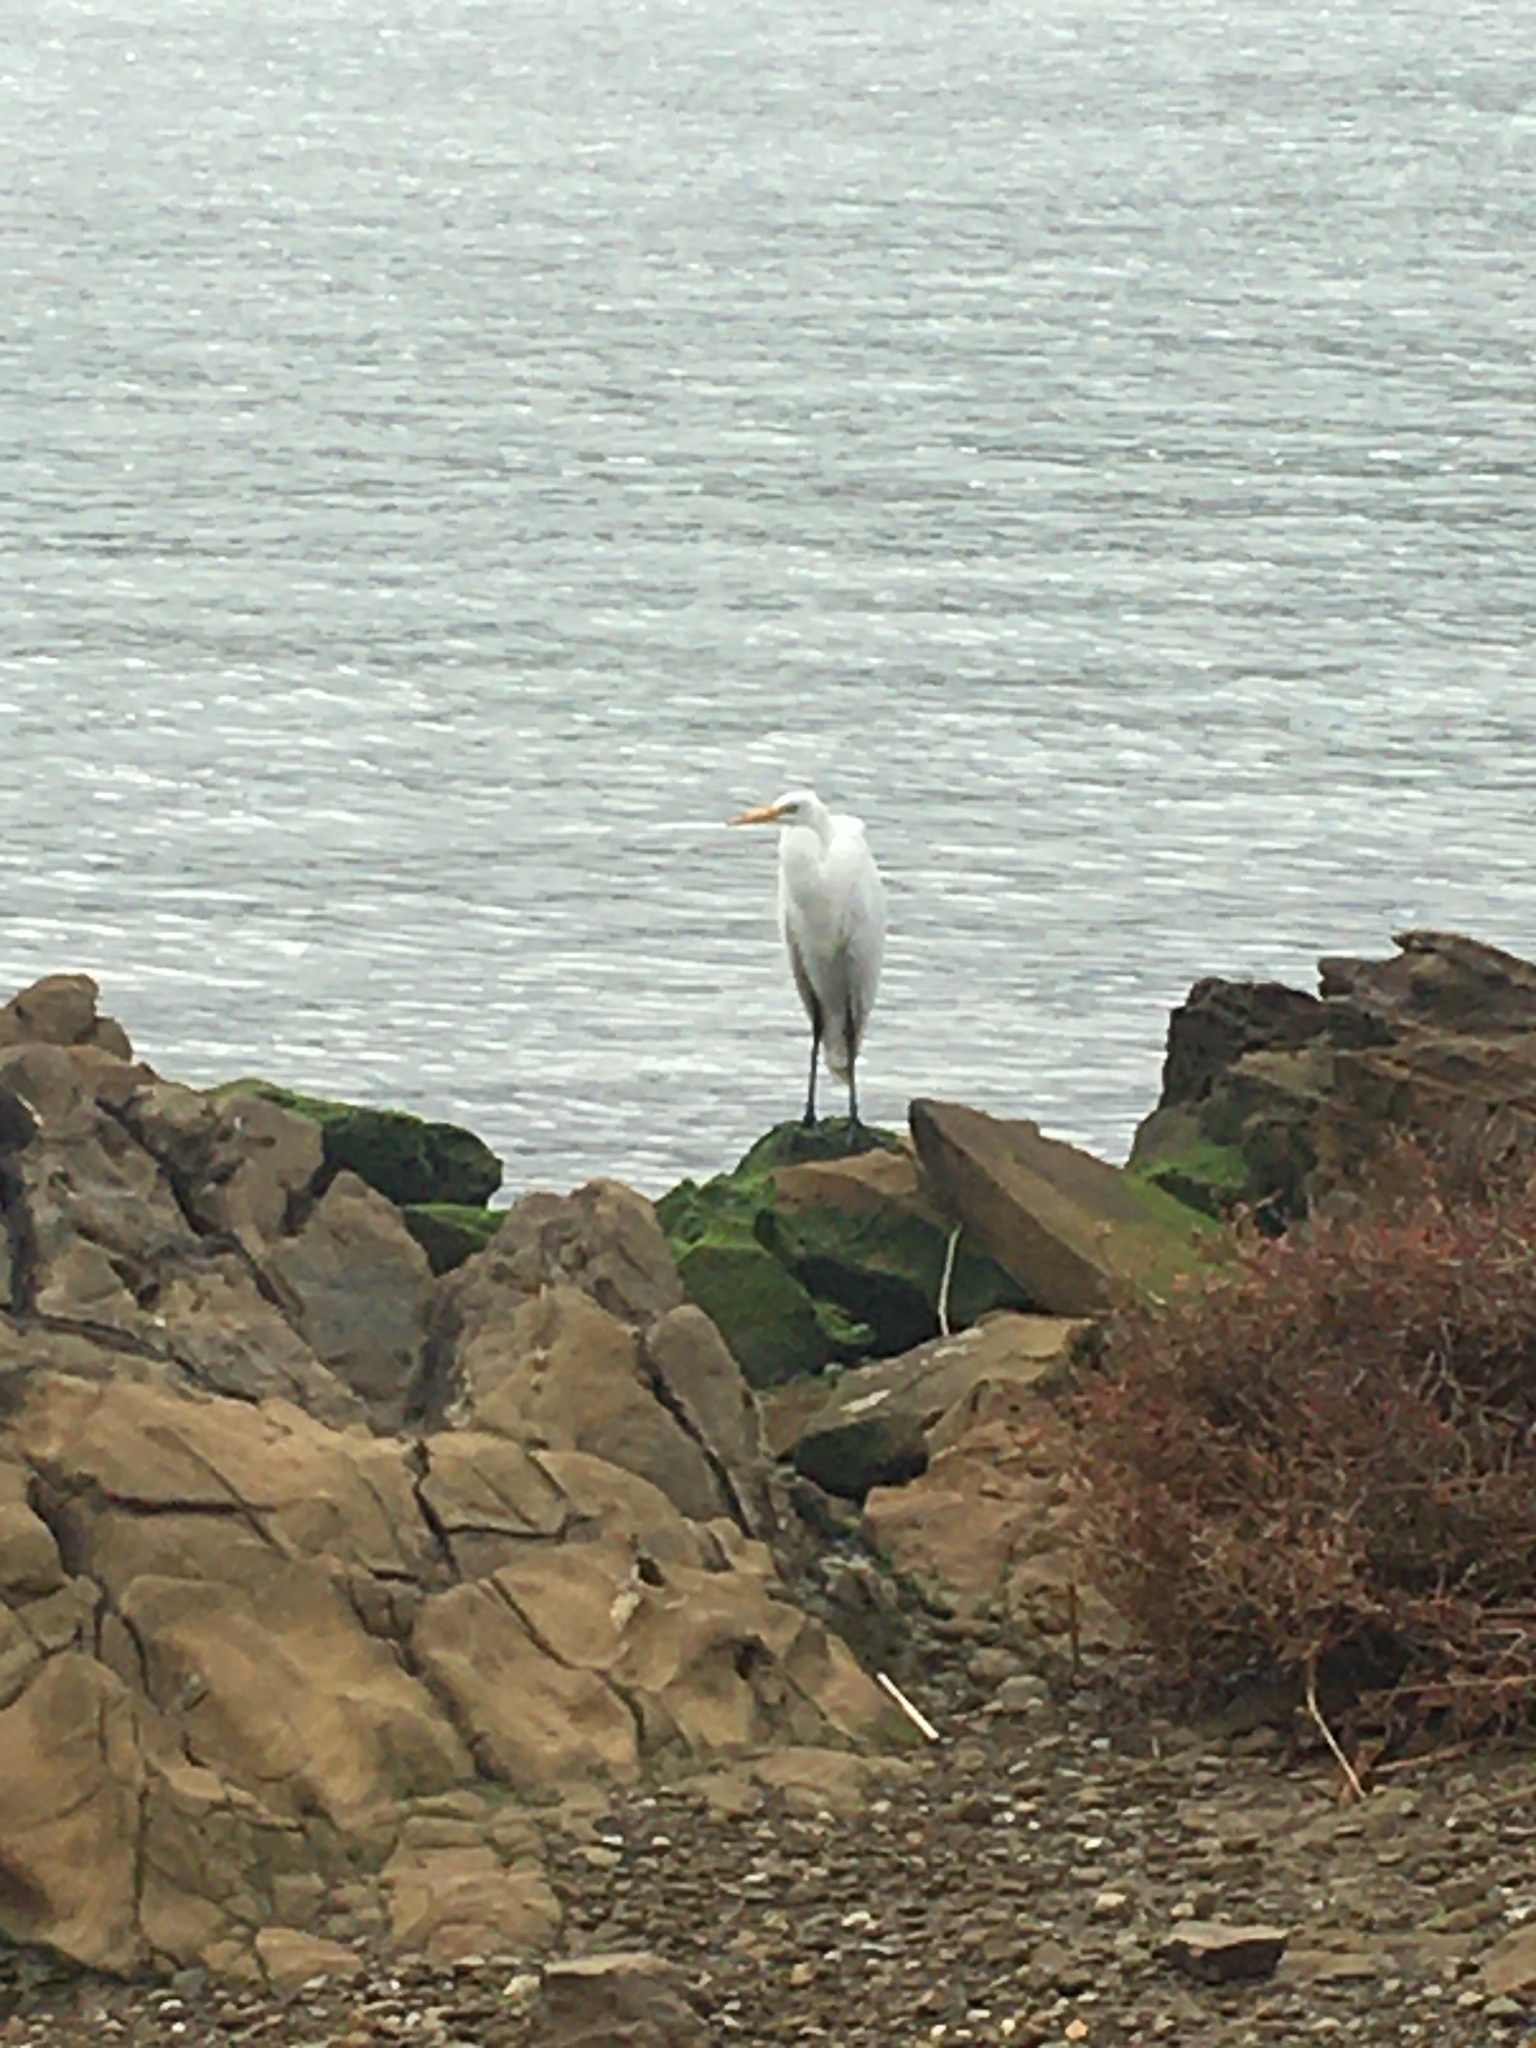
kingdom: Animalia
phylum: Chordata
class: Aves
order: Pelecaniformes
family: Ardeidae
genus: Ardea
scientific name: Ardea alba
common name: Great egret
